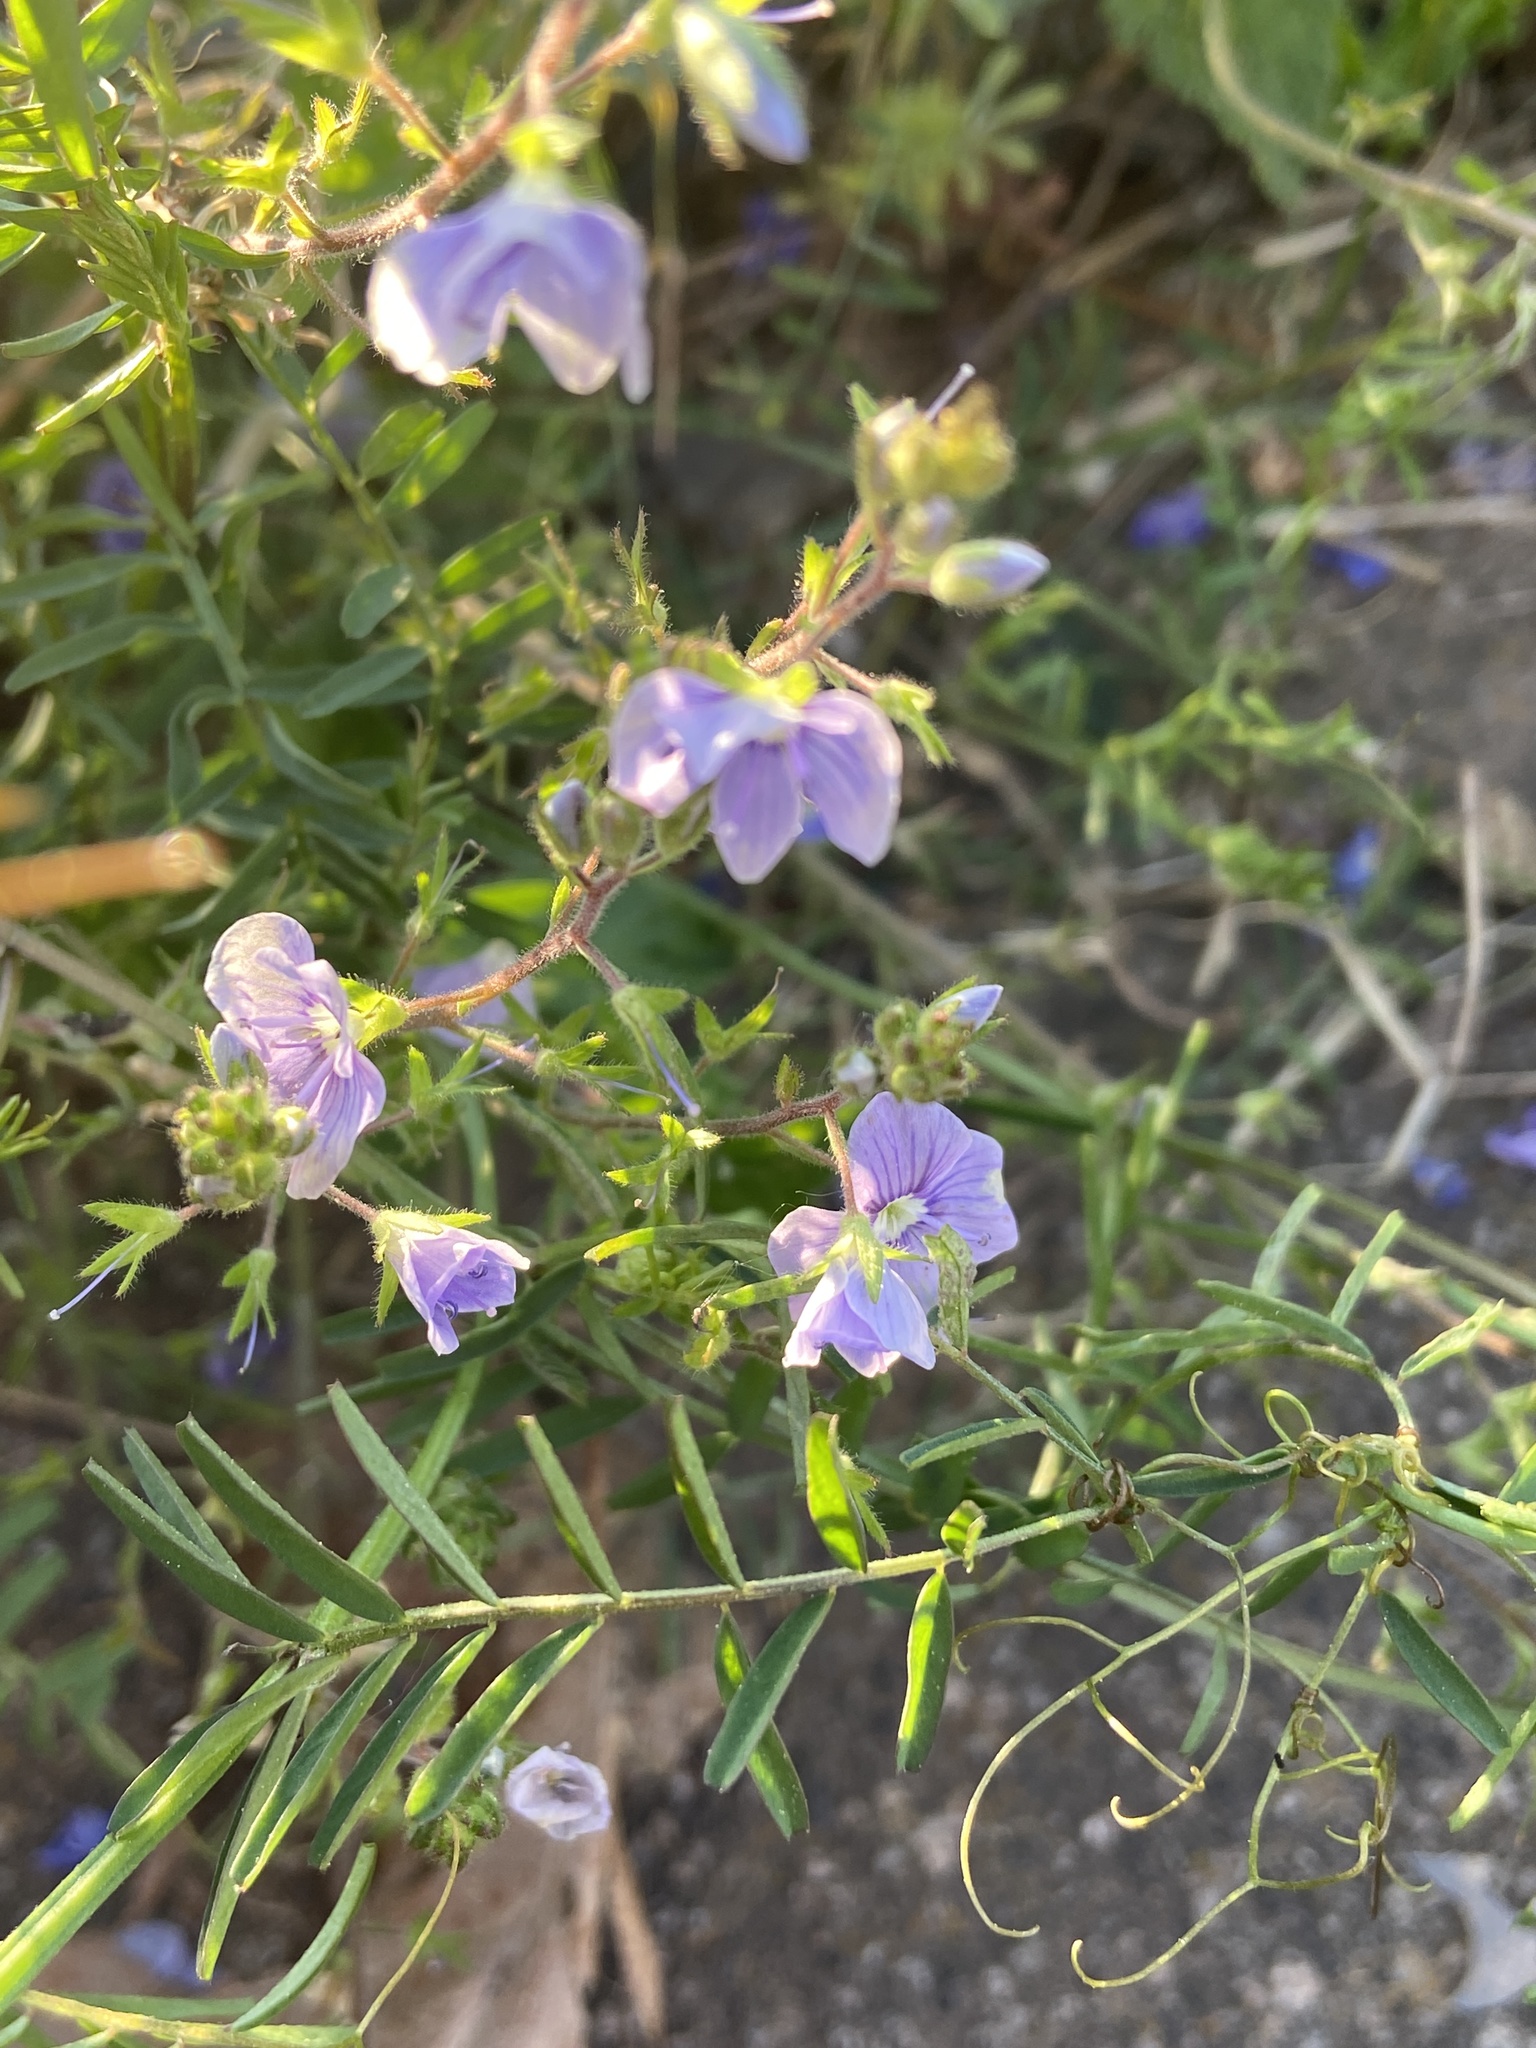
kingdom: Plantae
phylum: Tracheophyta
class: Magnoliopsida
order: Lamiales
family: Plantaginaceae
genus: Veronica
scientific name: Veronica chamaedrys
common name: Germander speedwell
